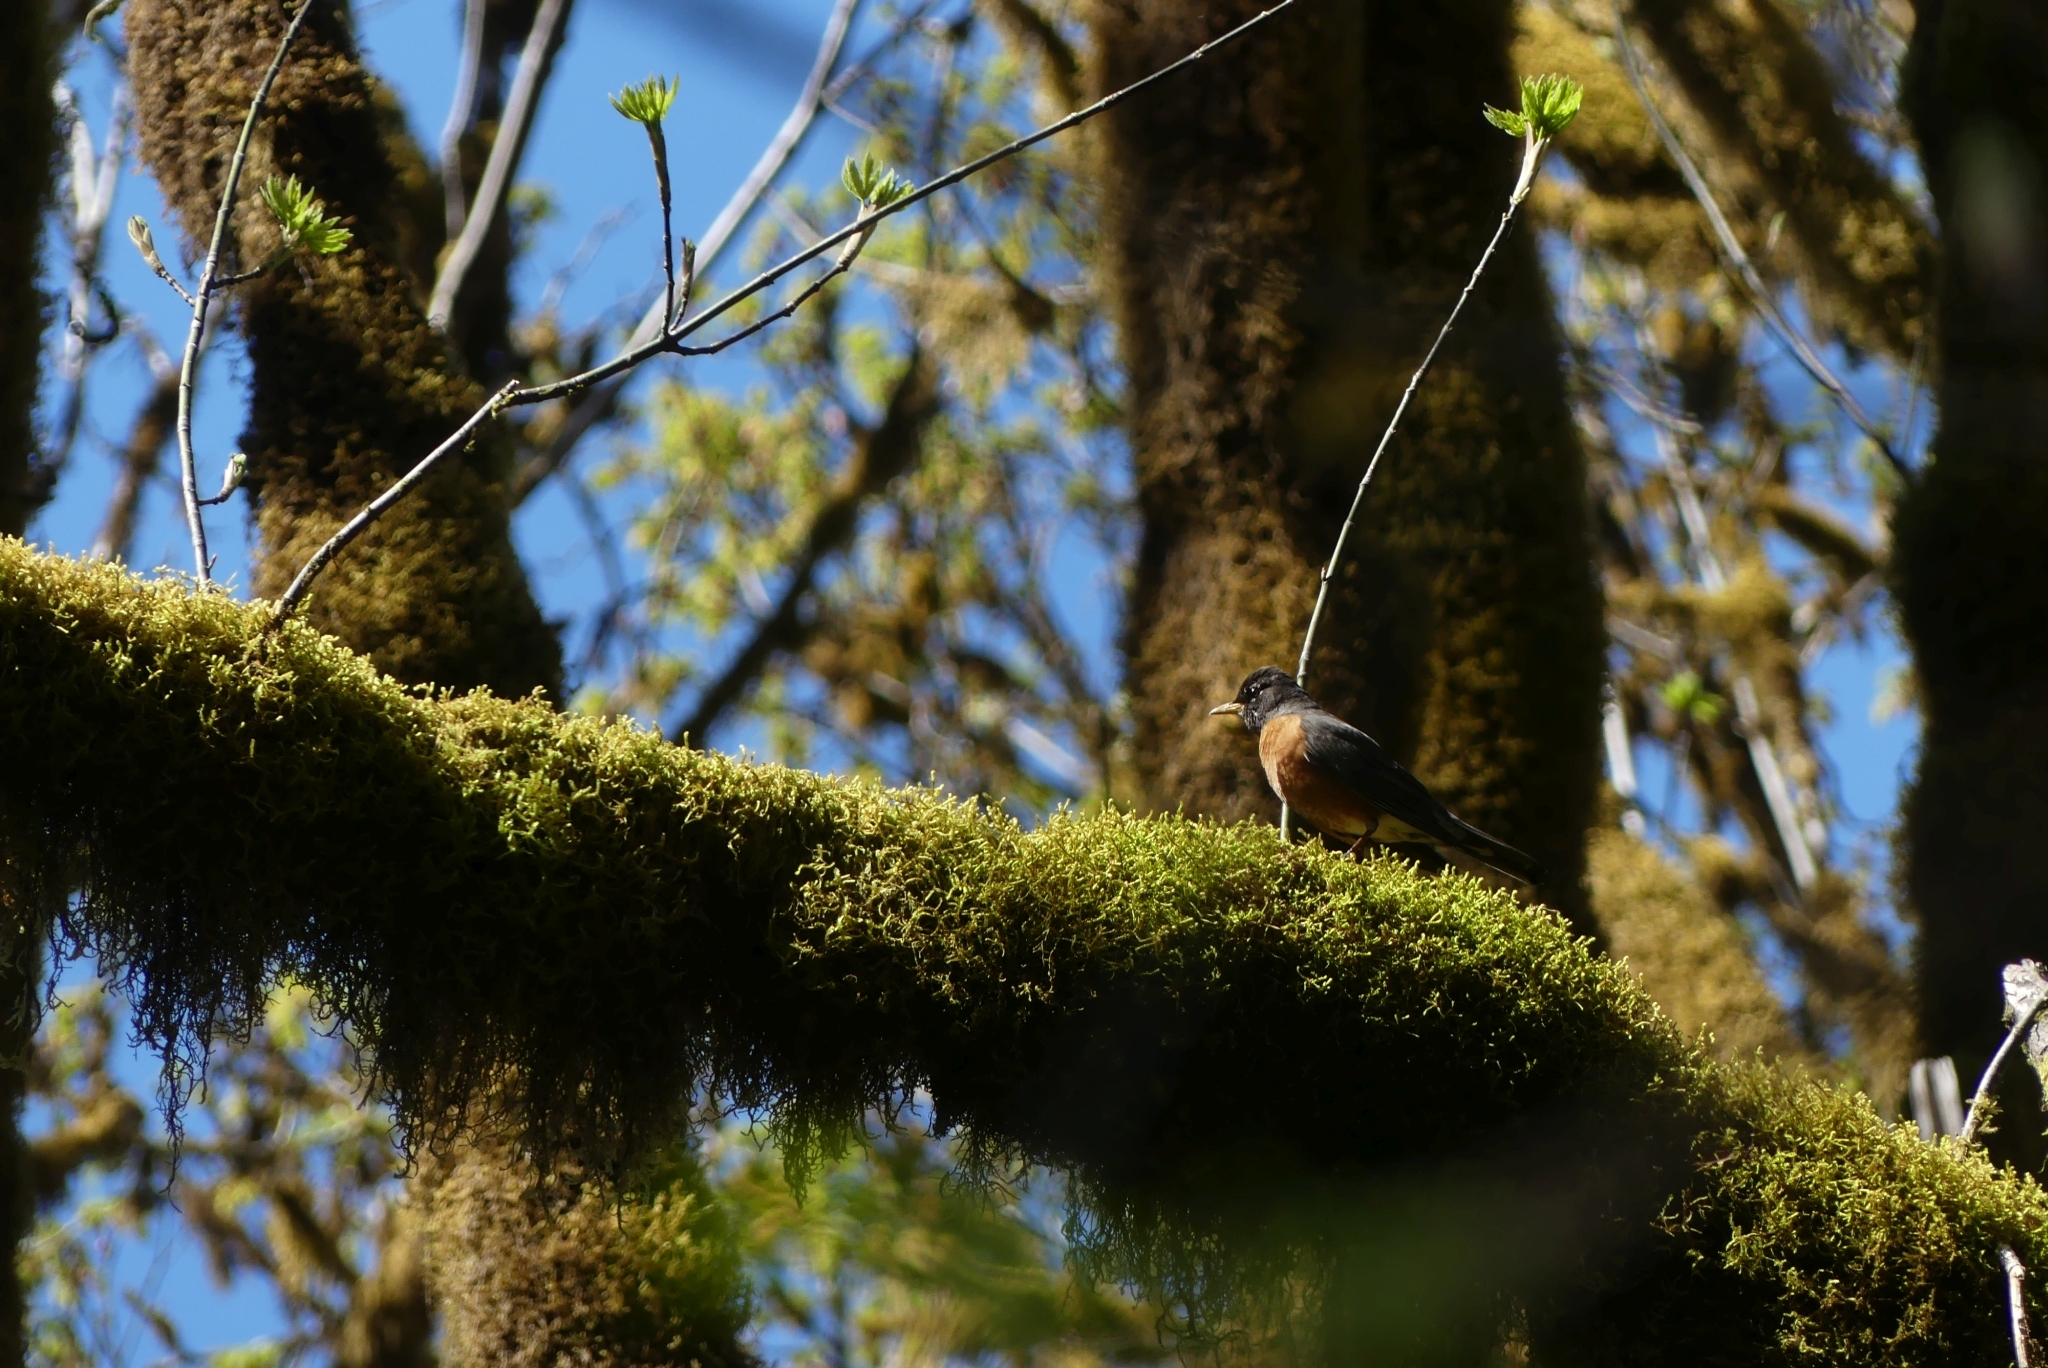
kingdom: Animalia
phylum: Chordata
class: Aves
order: Passeriformes
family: Turdidae
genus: Turdus
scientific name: Turdus migratorius
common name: American robin
